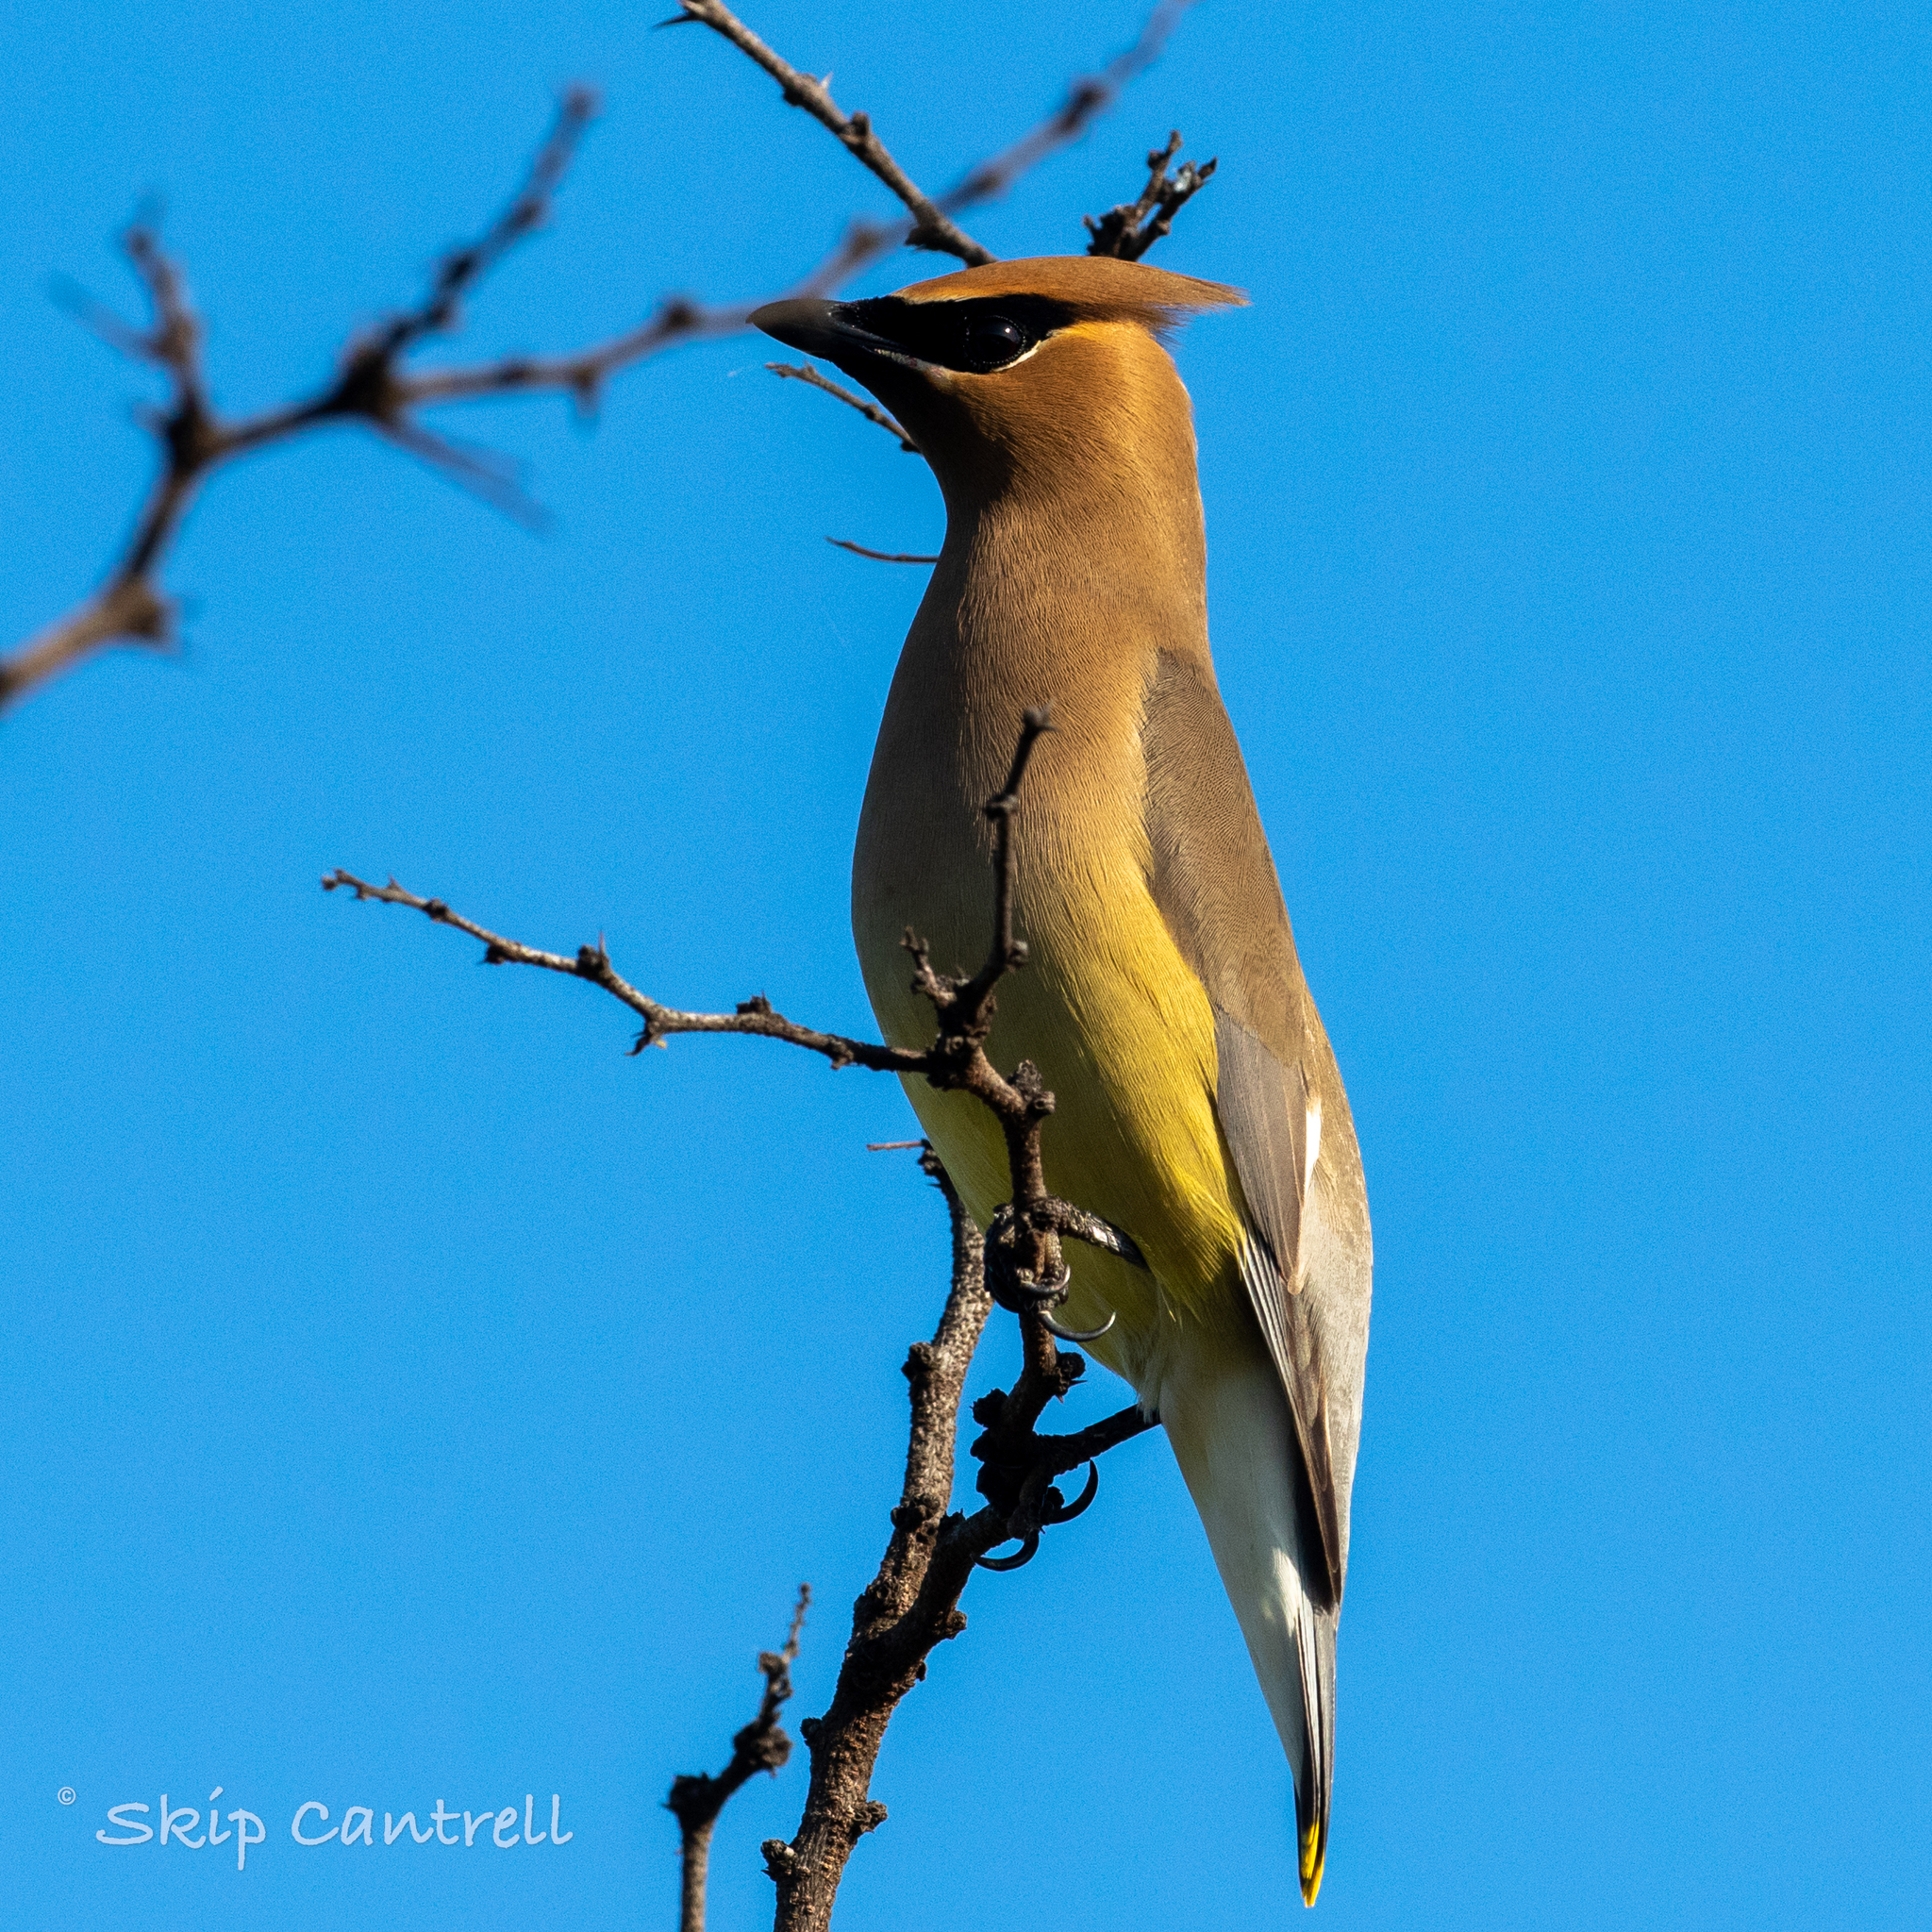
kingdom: Animalia
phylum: Chordata
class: Aves
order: Passeriformes
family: Bombycillidae
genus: Bombycilla
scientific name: Bombycilla cedrorum
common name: Cedar waxwing
